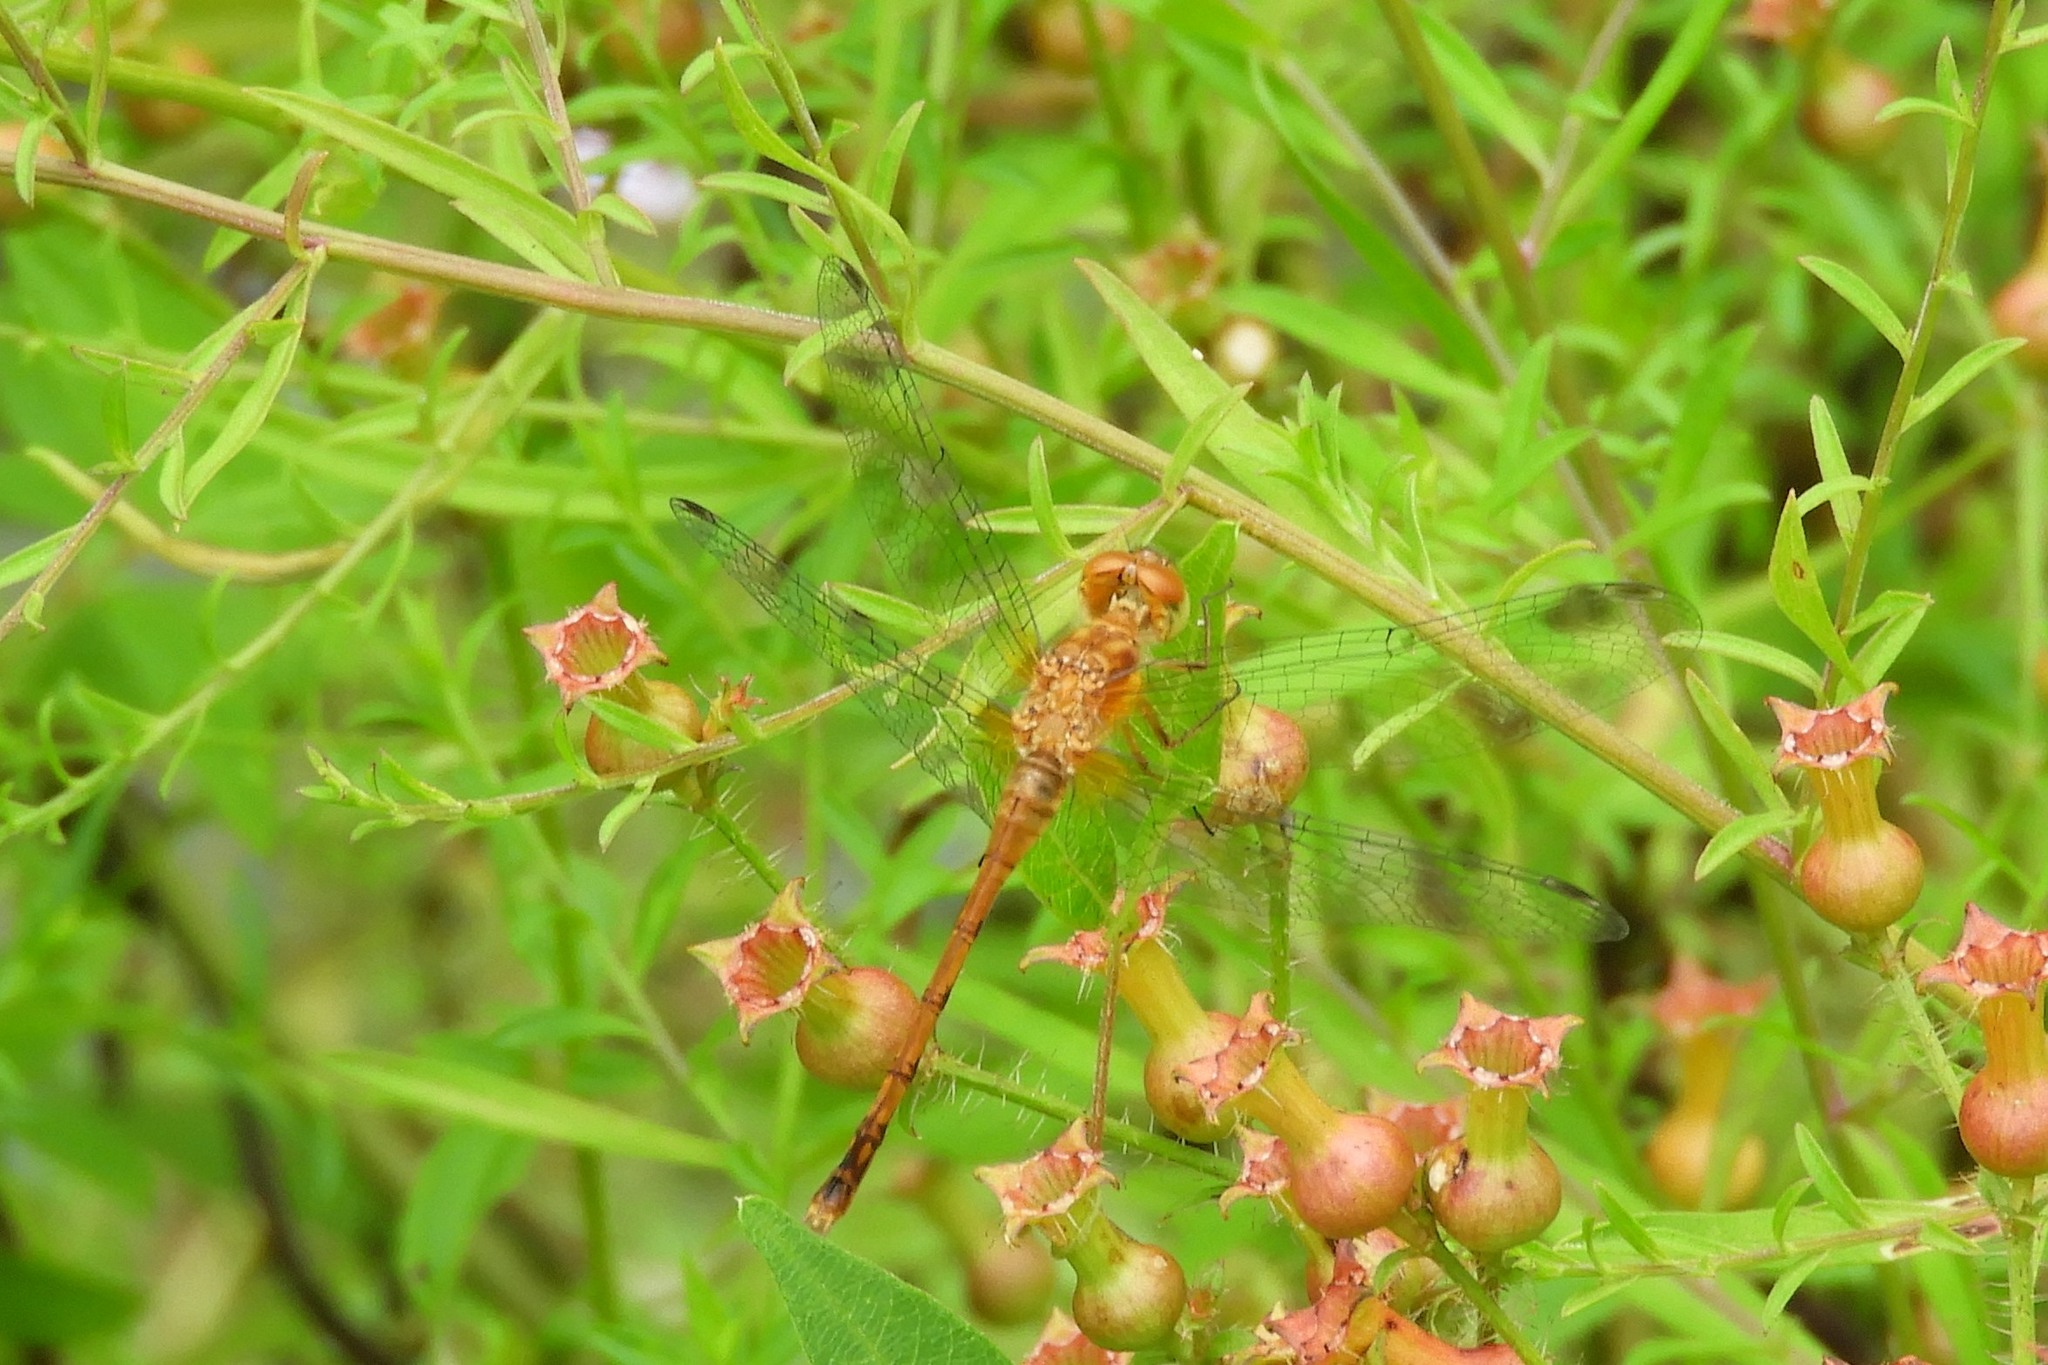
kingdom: Animalia
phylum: Arthropoda
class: Insecta
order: Odonata
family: Libellulidae
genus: Sympetrum
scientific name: Sympetrum vicinum
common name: Autumn meadowhawk
